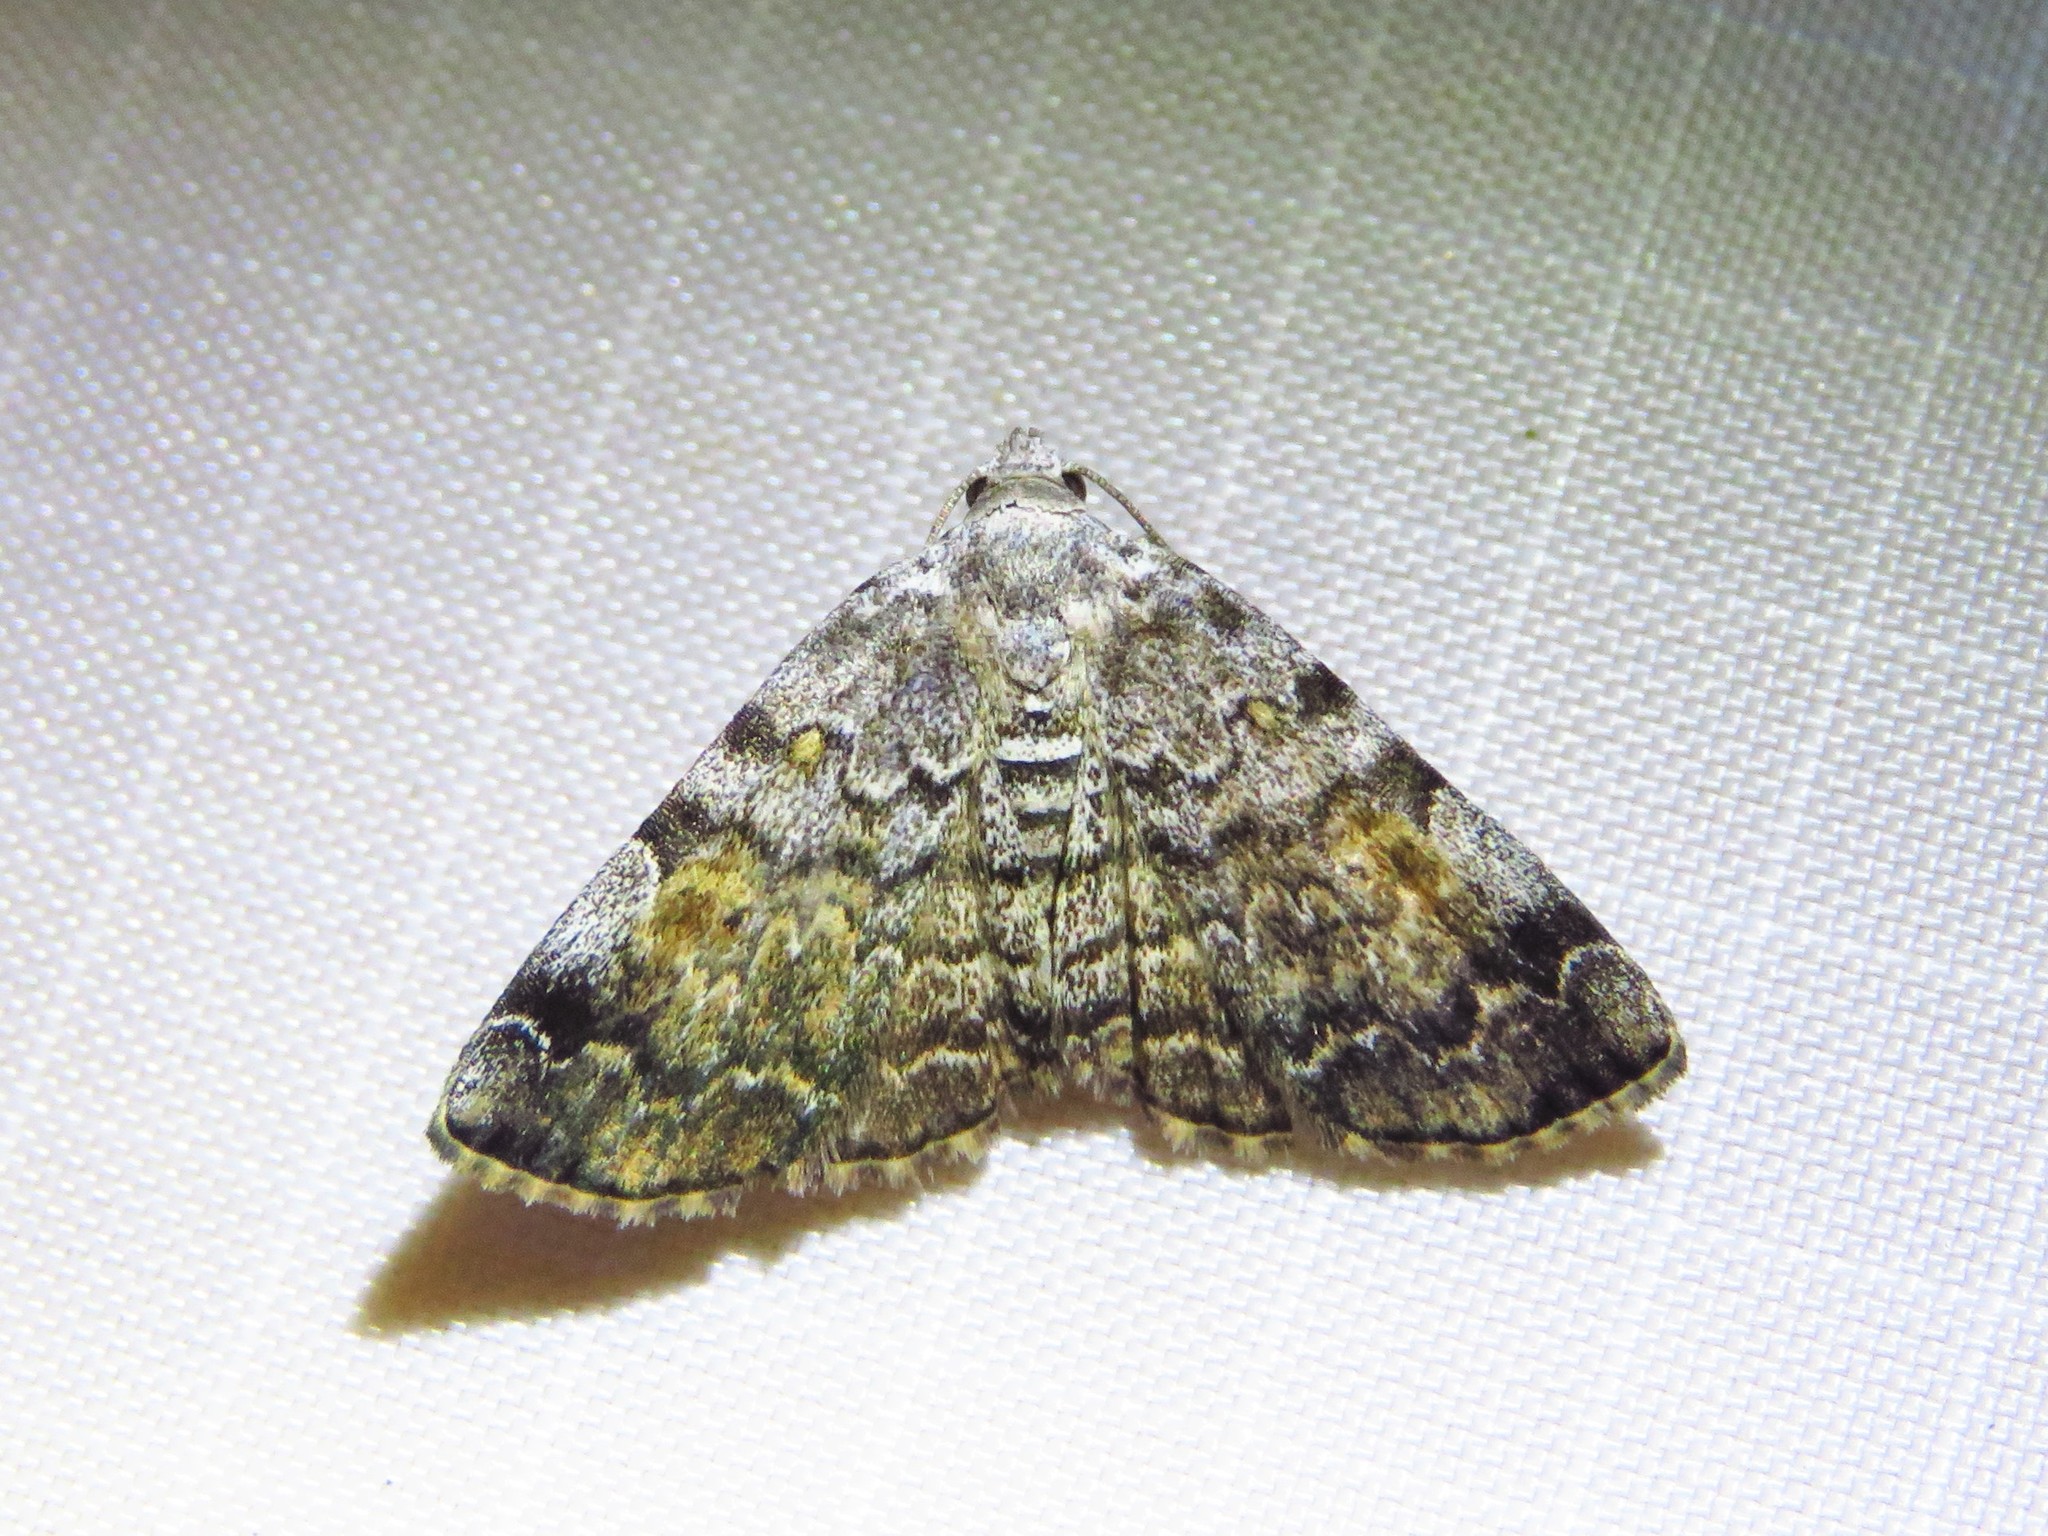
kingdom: Animalia
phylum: Arthropoda
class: Insecta
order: Lepidoptera
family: Erebidae
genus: Idia
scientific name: Idia americalis
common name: American idia moth
